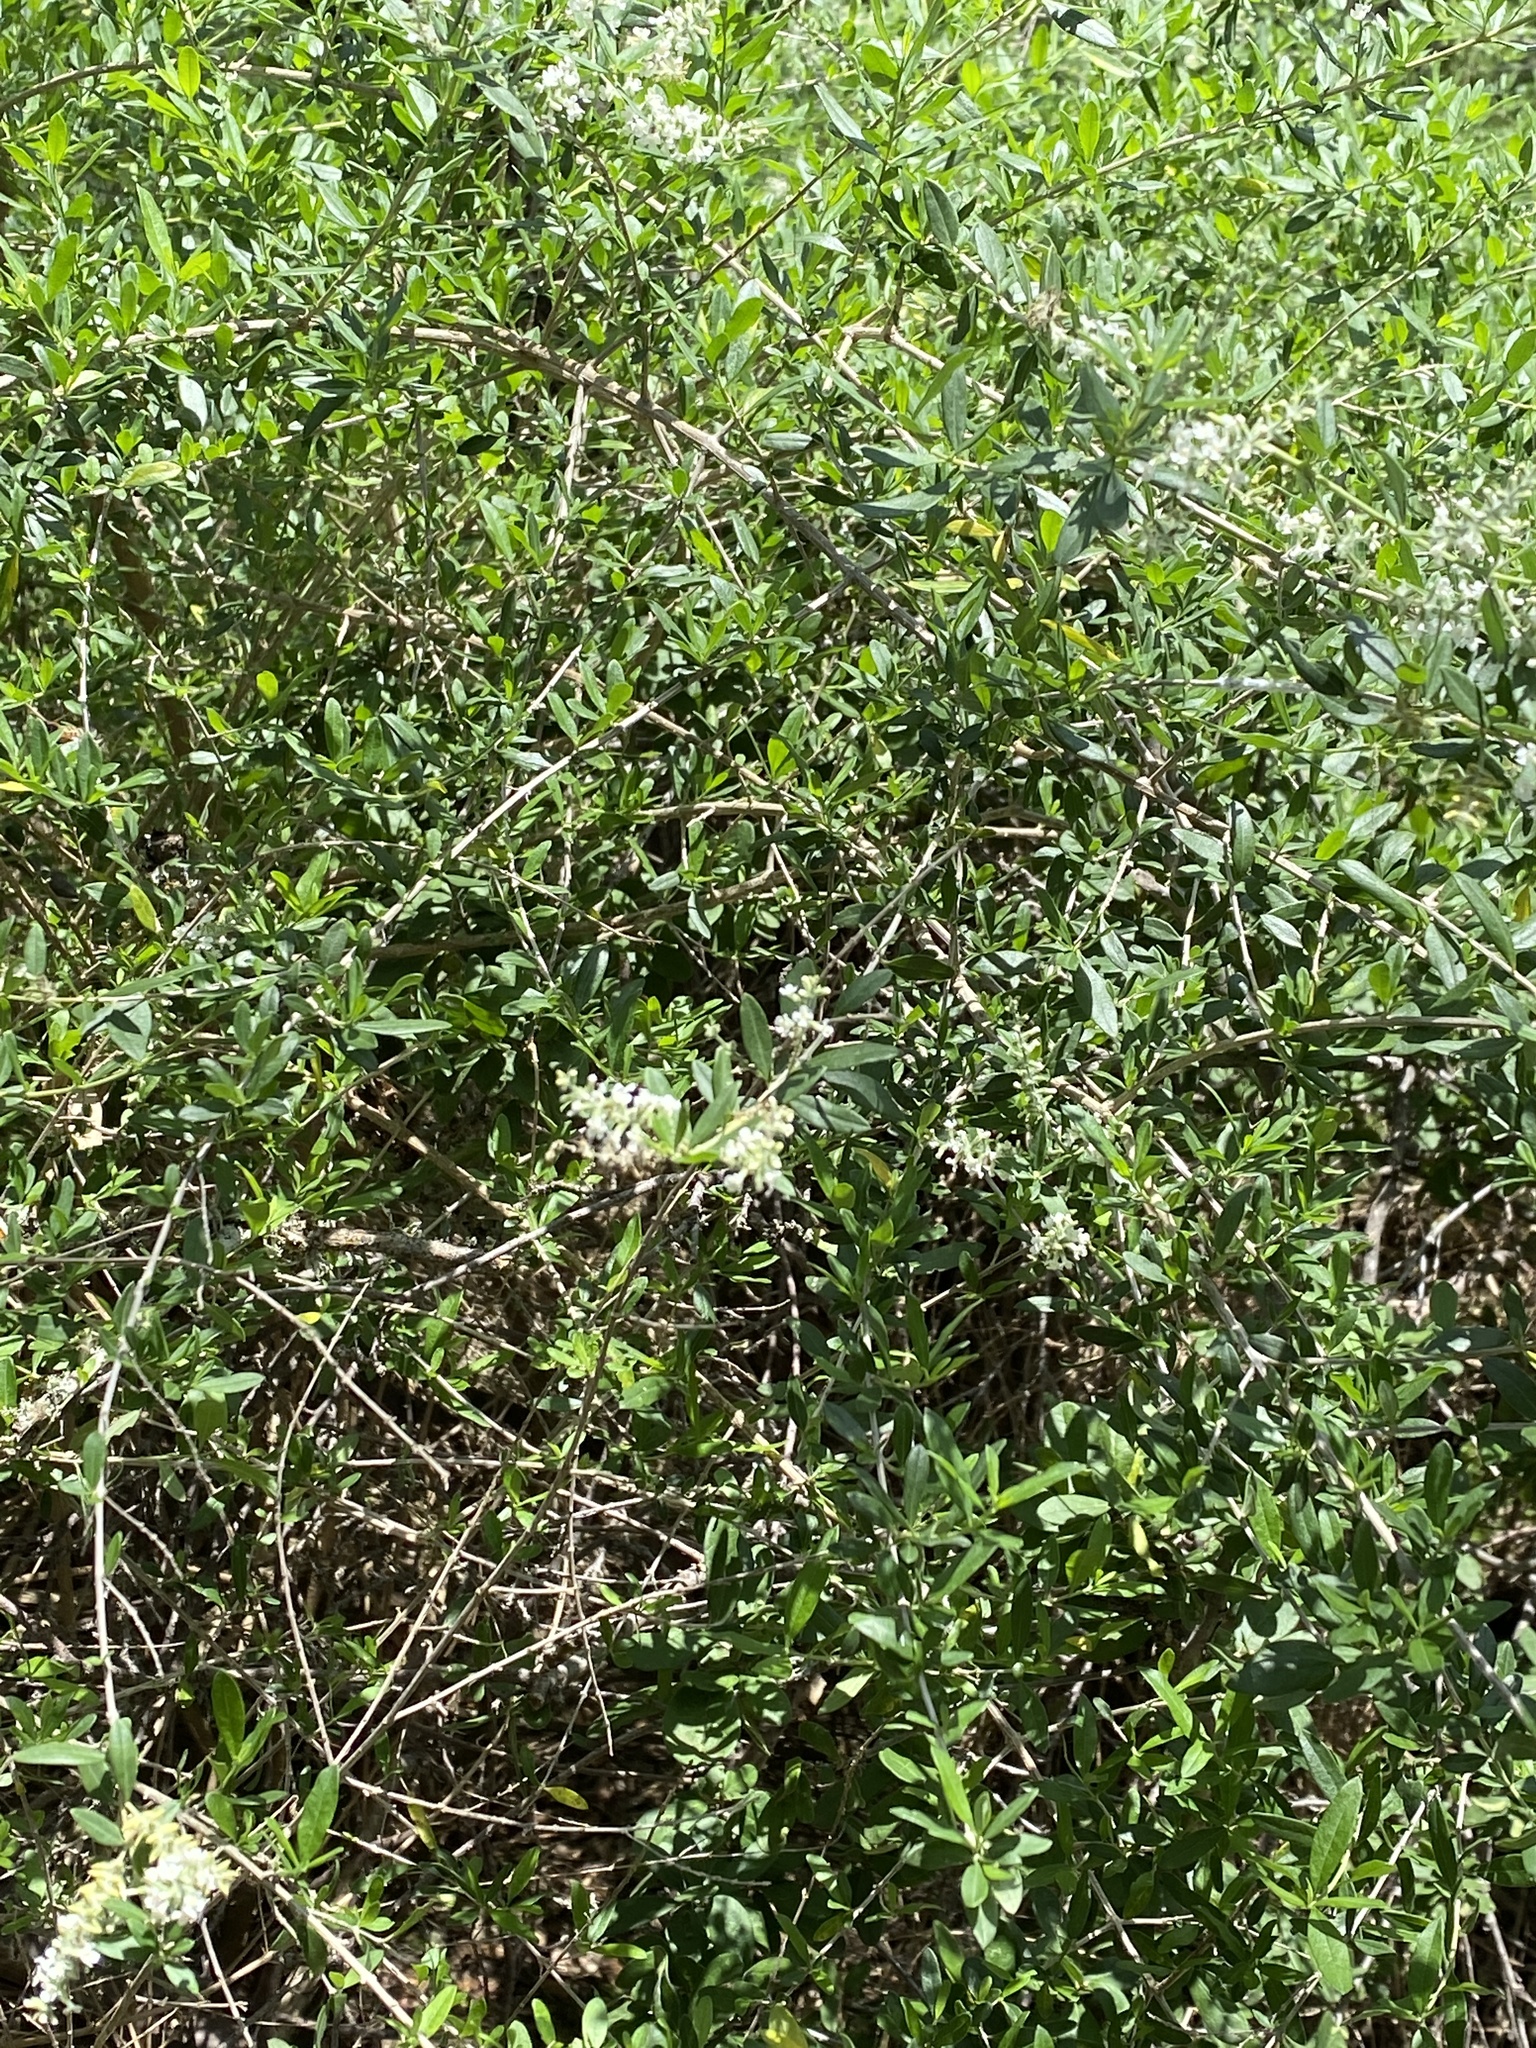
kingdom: Plantae
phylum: Tracheophyta
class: Magnoliopsida
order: Lamiales
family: Verbenaceae
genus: Aloysia
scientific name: Aloysia gratissima
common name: Common bee-brush
